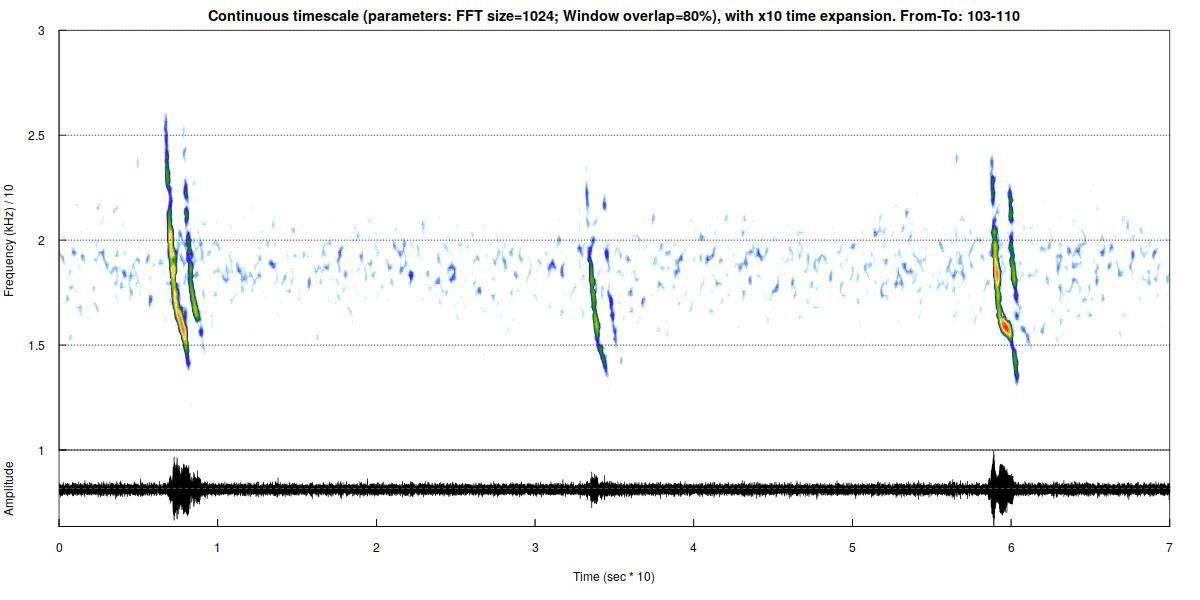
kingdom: Animalia
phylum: Chordata
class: Mammalia
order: Chiroptera
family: Vespertilionidae
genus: Vespertilio
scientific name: Vespertilio murinus
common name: Particolored bat
